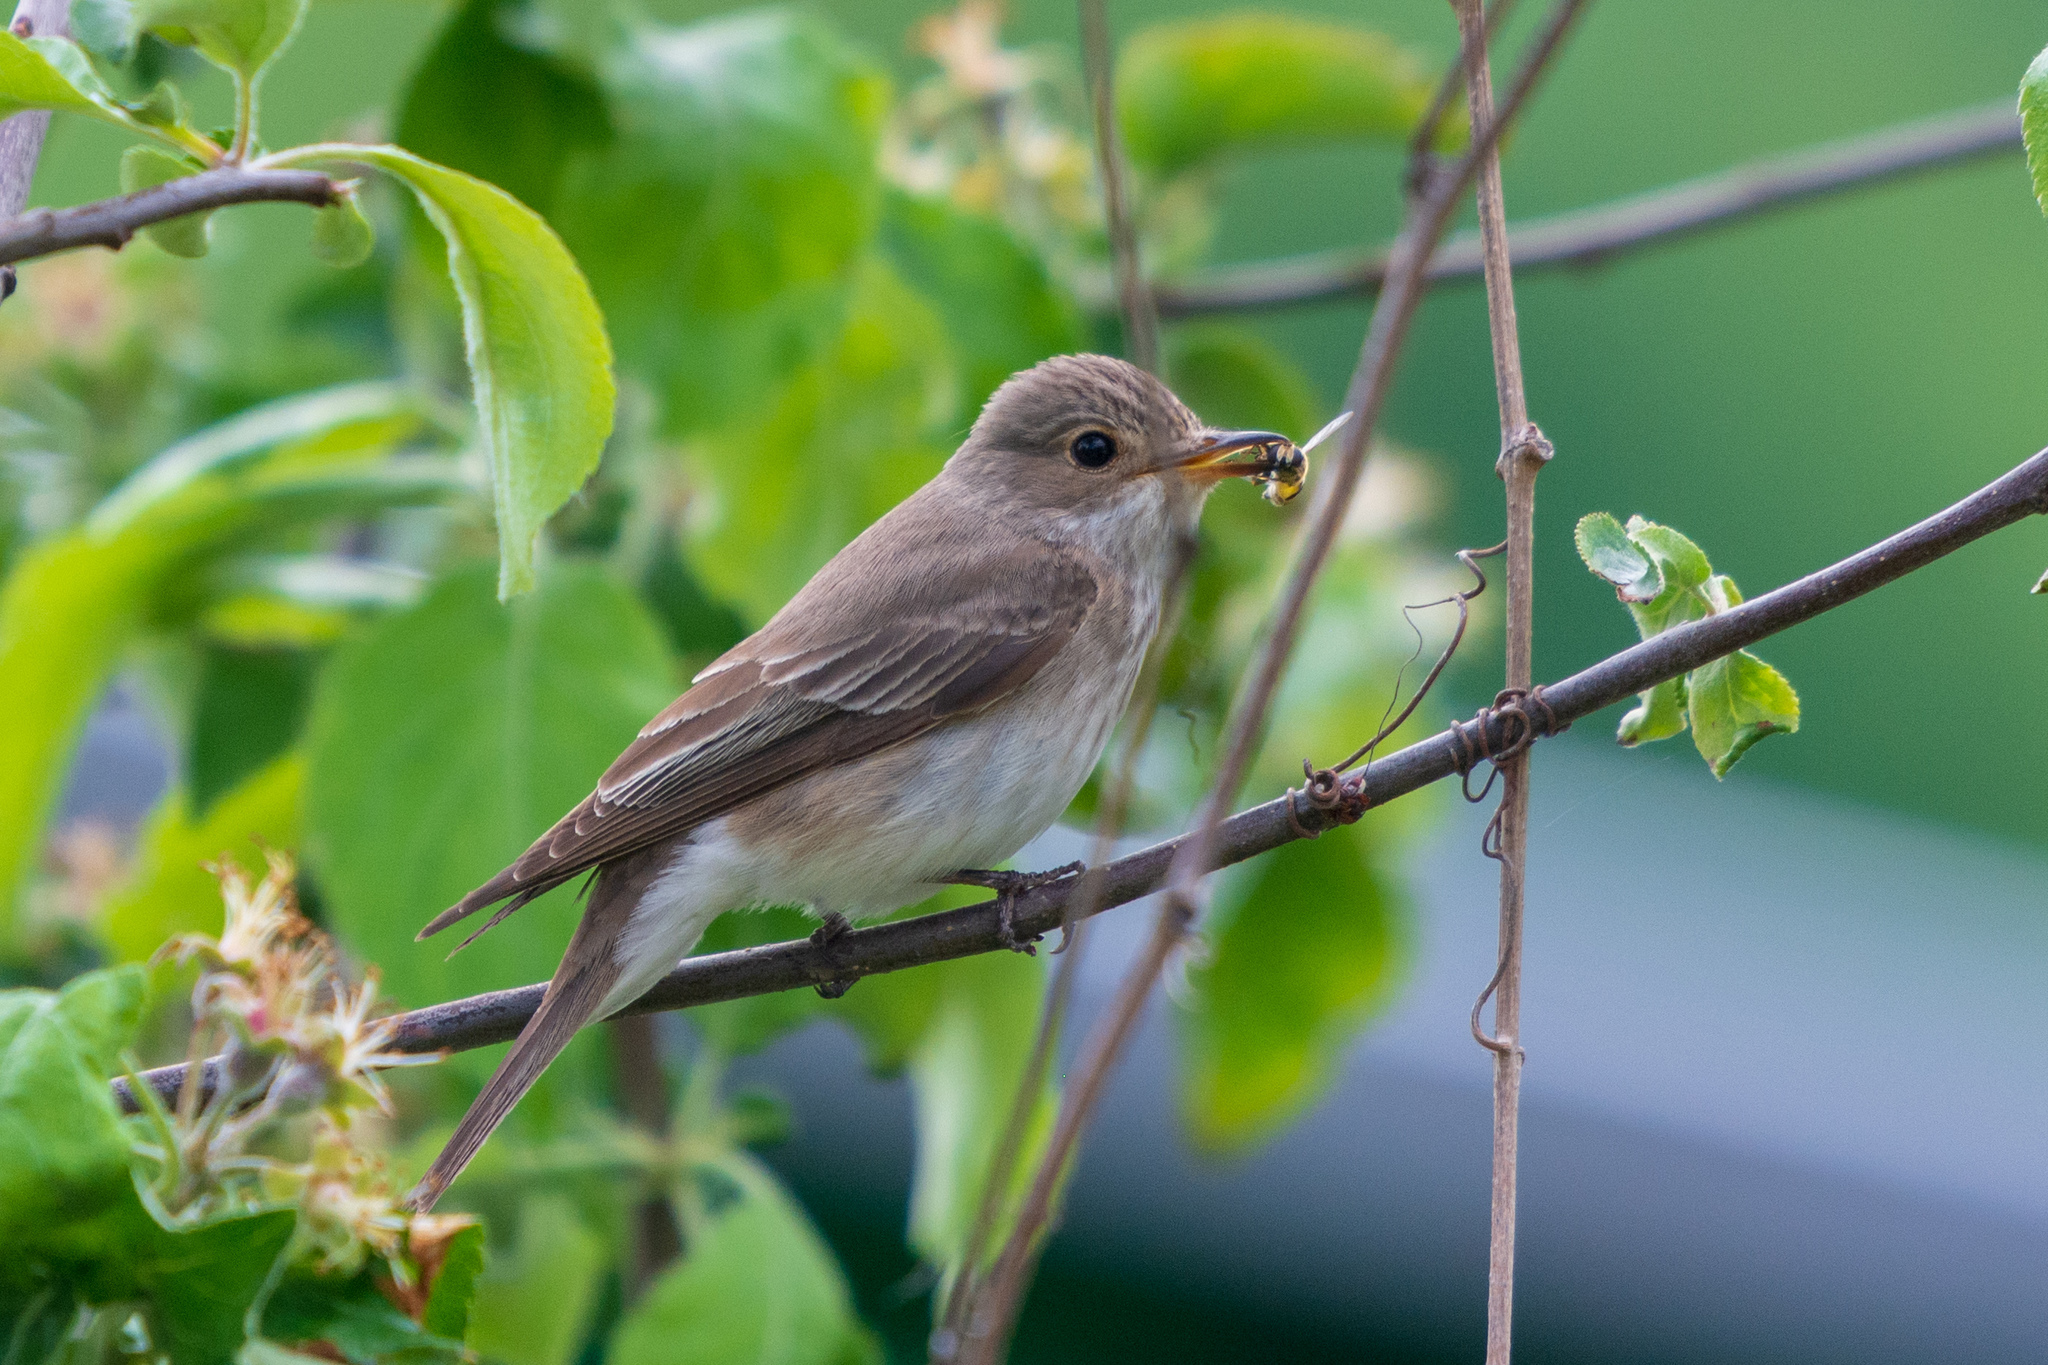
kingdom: Animalia
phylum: Chordata
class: Aves
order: Passeriformes
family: Muscicapidae
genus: Muscicapa
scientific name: Muscicapa striata
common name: Spotted flycatcher
